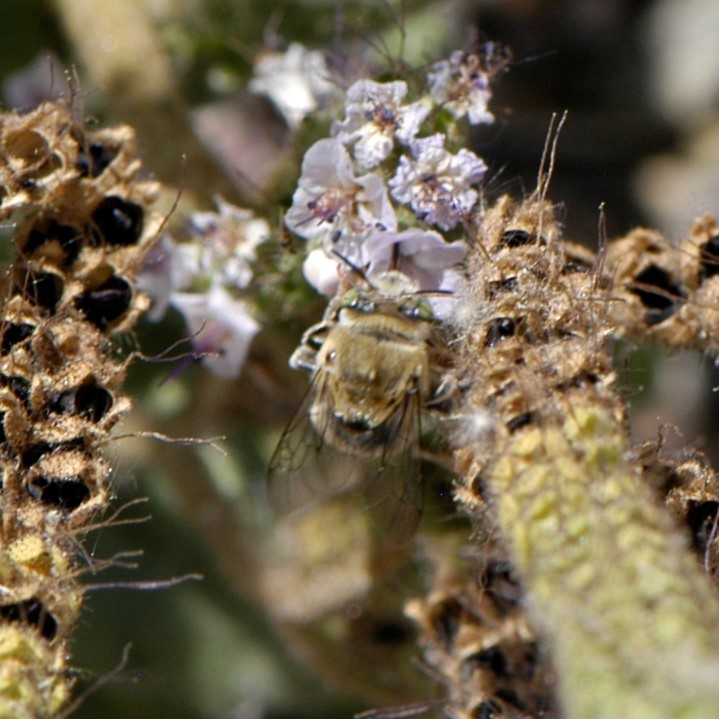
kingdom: Animalia
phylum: Arthropoda
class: Insecta
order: Hymenoptera
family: Apidae
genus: Anthophora
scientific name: Anthophora californica
